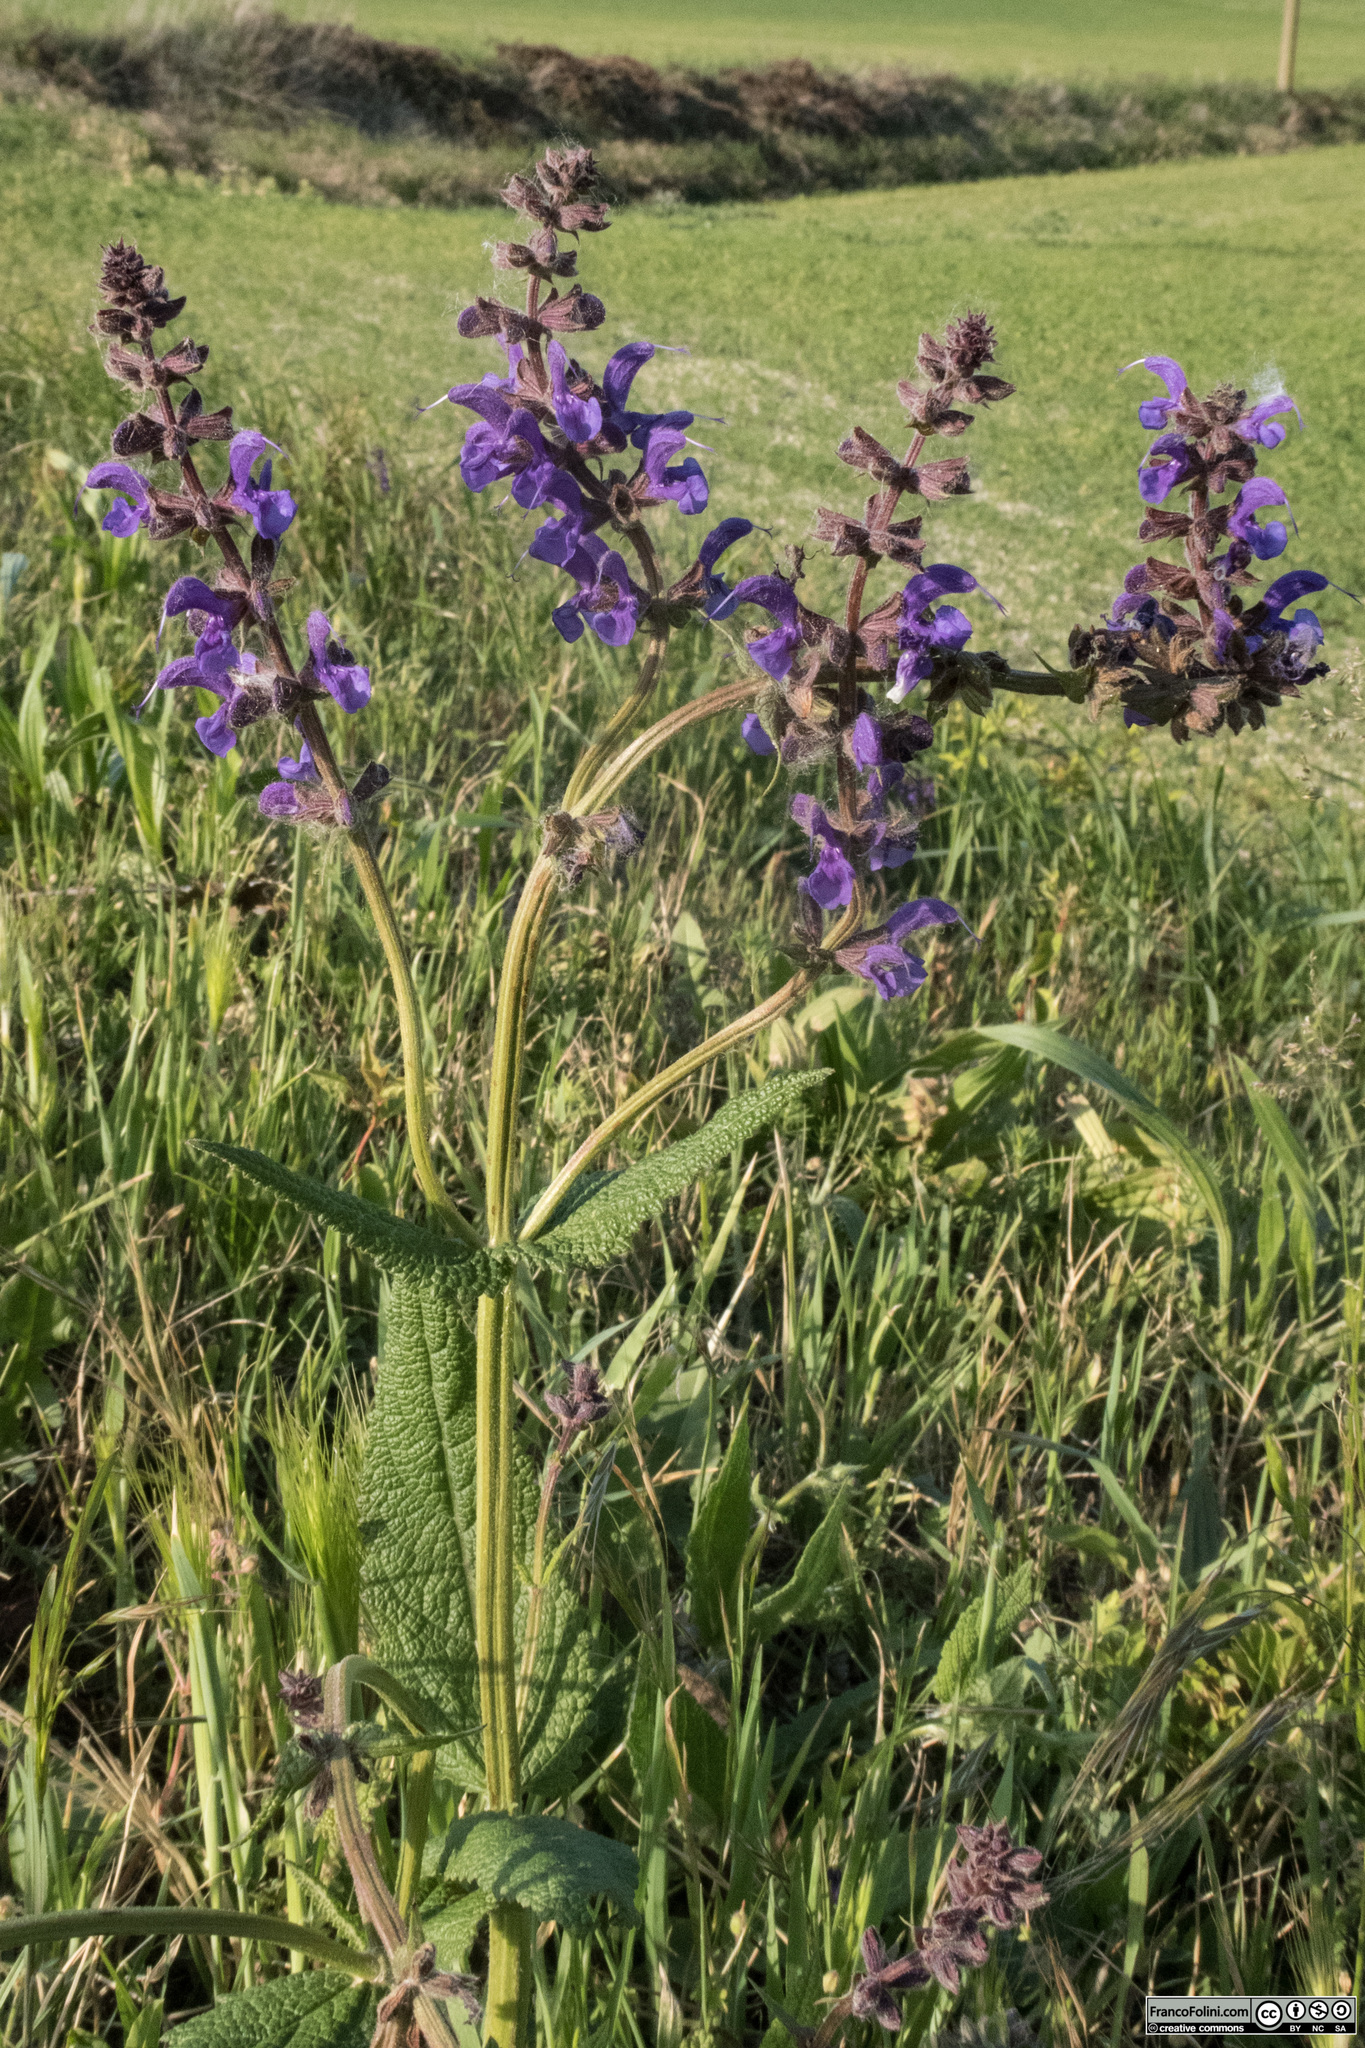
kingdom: Plantae
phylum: Tracheophyta
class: Magnoliopsida
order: Lamiales
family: Lamiaceae
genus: Salvia
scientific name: Salvia pratensis
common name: Meadow sage
